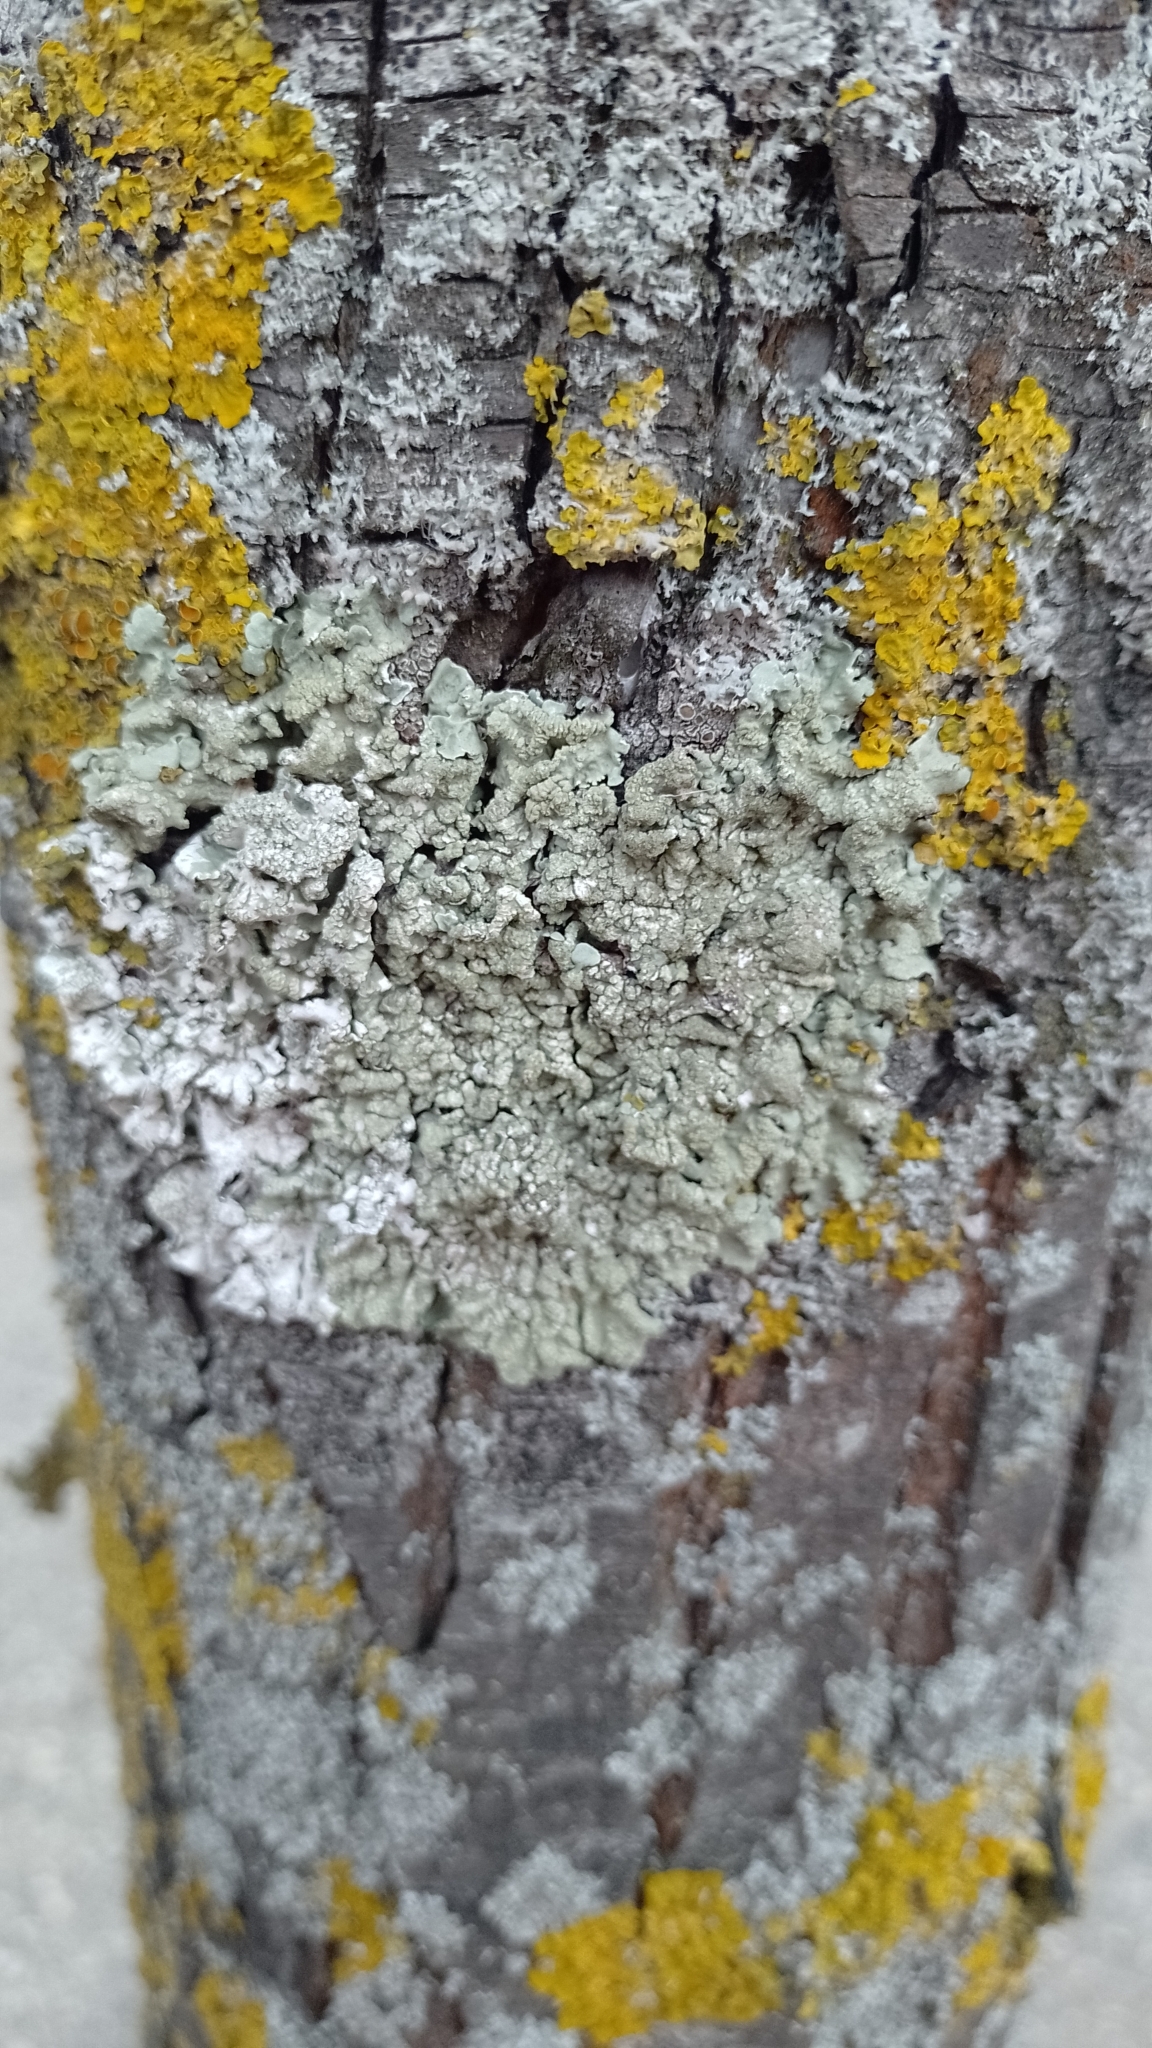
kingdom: Fungi
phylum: Ascomycota
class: Lecanoromycetes
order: Lecanorales
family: Parmeliaceae
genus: Flavoparmelia
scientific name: Flavoparmelia soredians
